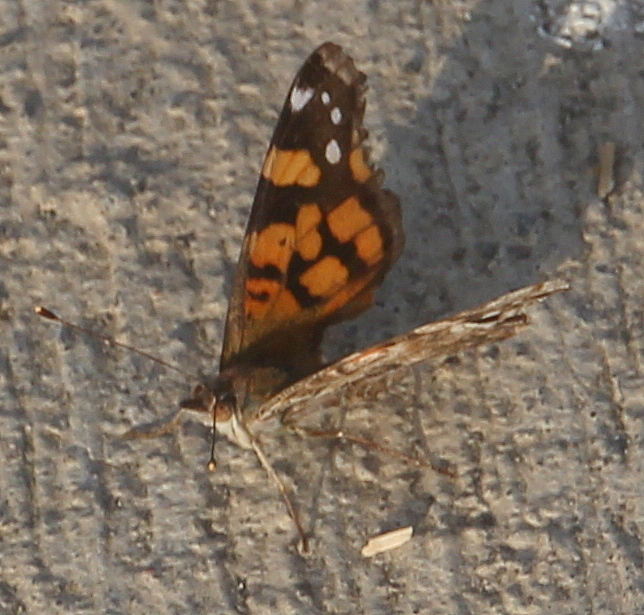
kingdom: Animalia
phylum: Arthropoda
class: Insecta
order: Lepidoptera
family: Nymphalidae
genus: Vanessa
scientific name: Vanessa annabella
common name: West coast lady
